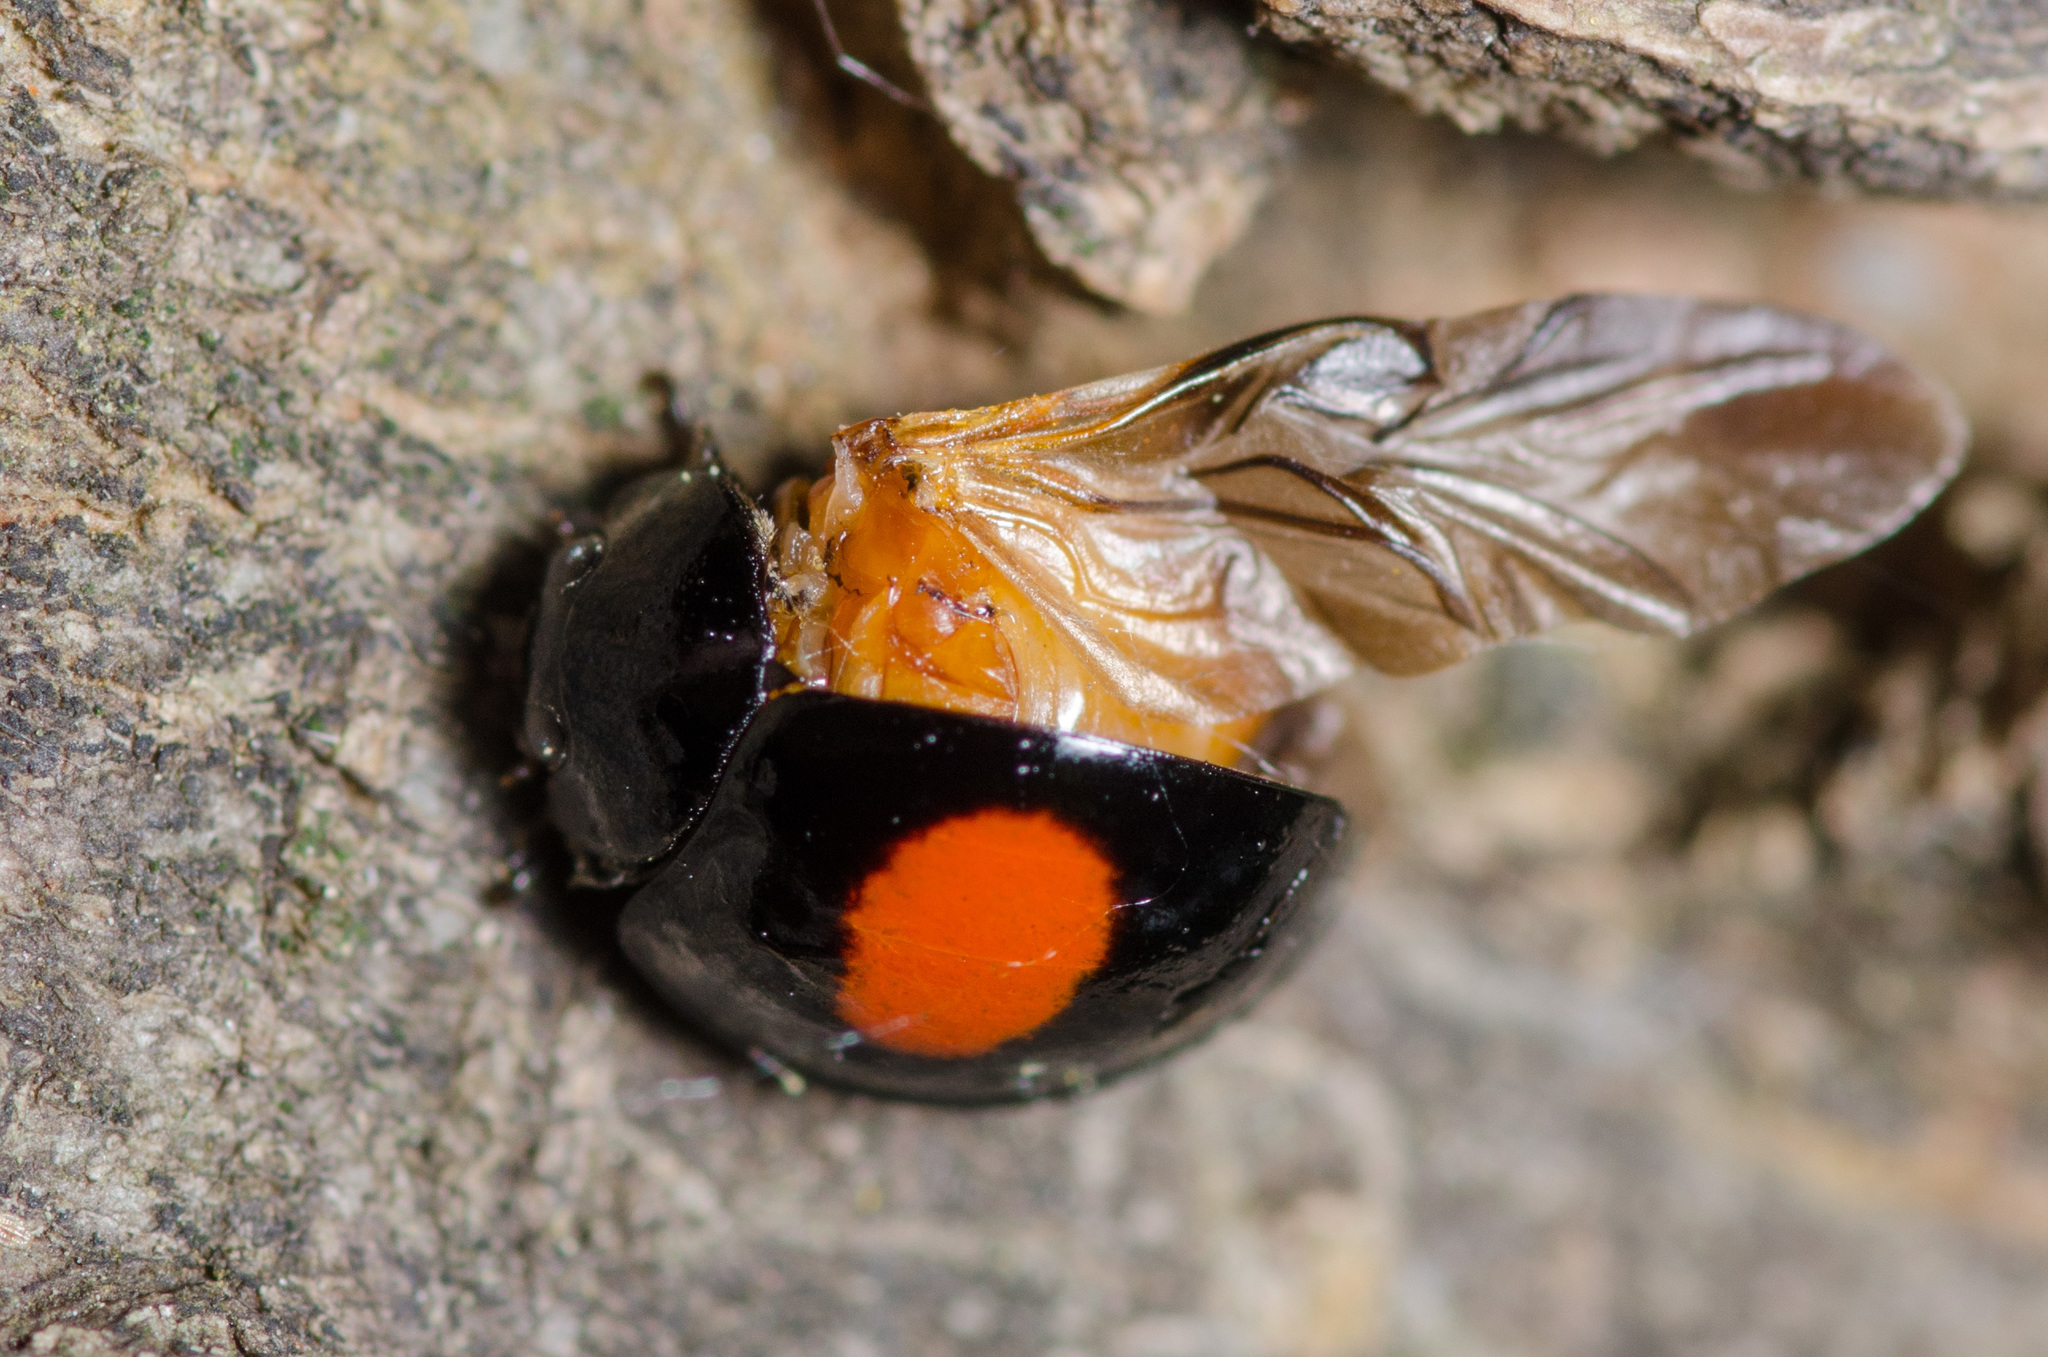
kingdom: Animalia
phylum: Arthropoda
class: Insecta
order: Coleoptera
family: Coccinellidae
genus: Chilocorus
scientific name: Chilocorus cacti
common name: Cactus lady beetle
